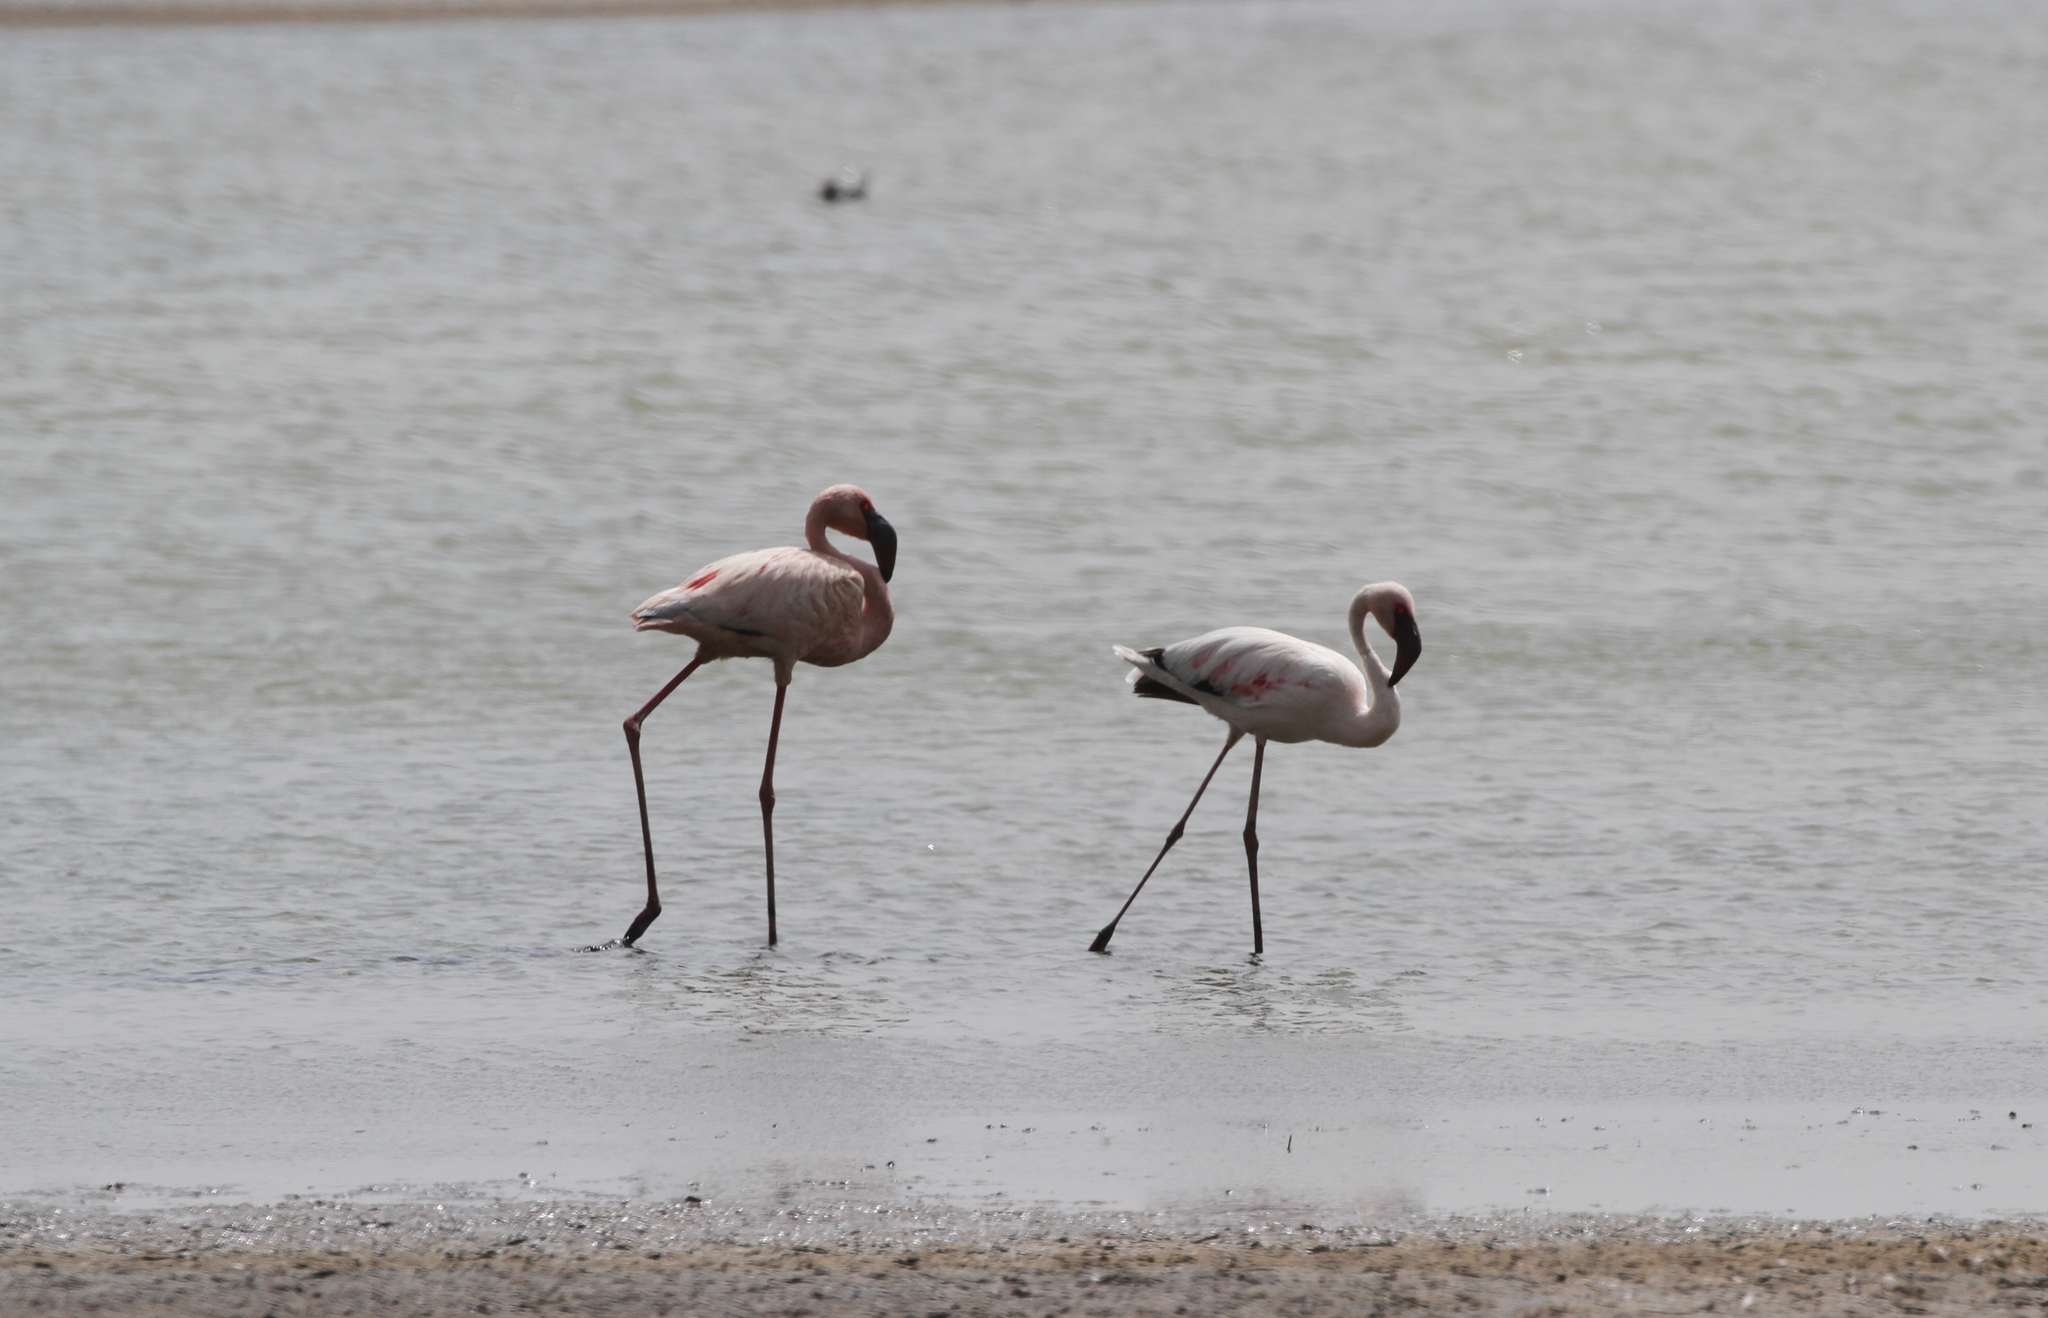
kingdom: Animalia
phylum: Chordata
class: Aves
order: Phoenicopteriformes
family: Phoenicopteridae
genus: Phoeniconaias
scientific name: Phoeniconaias minor
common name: Lesser flamingo
